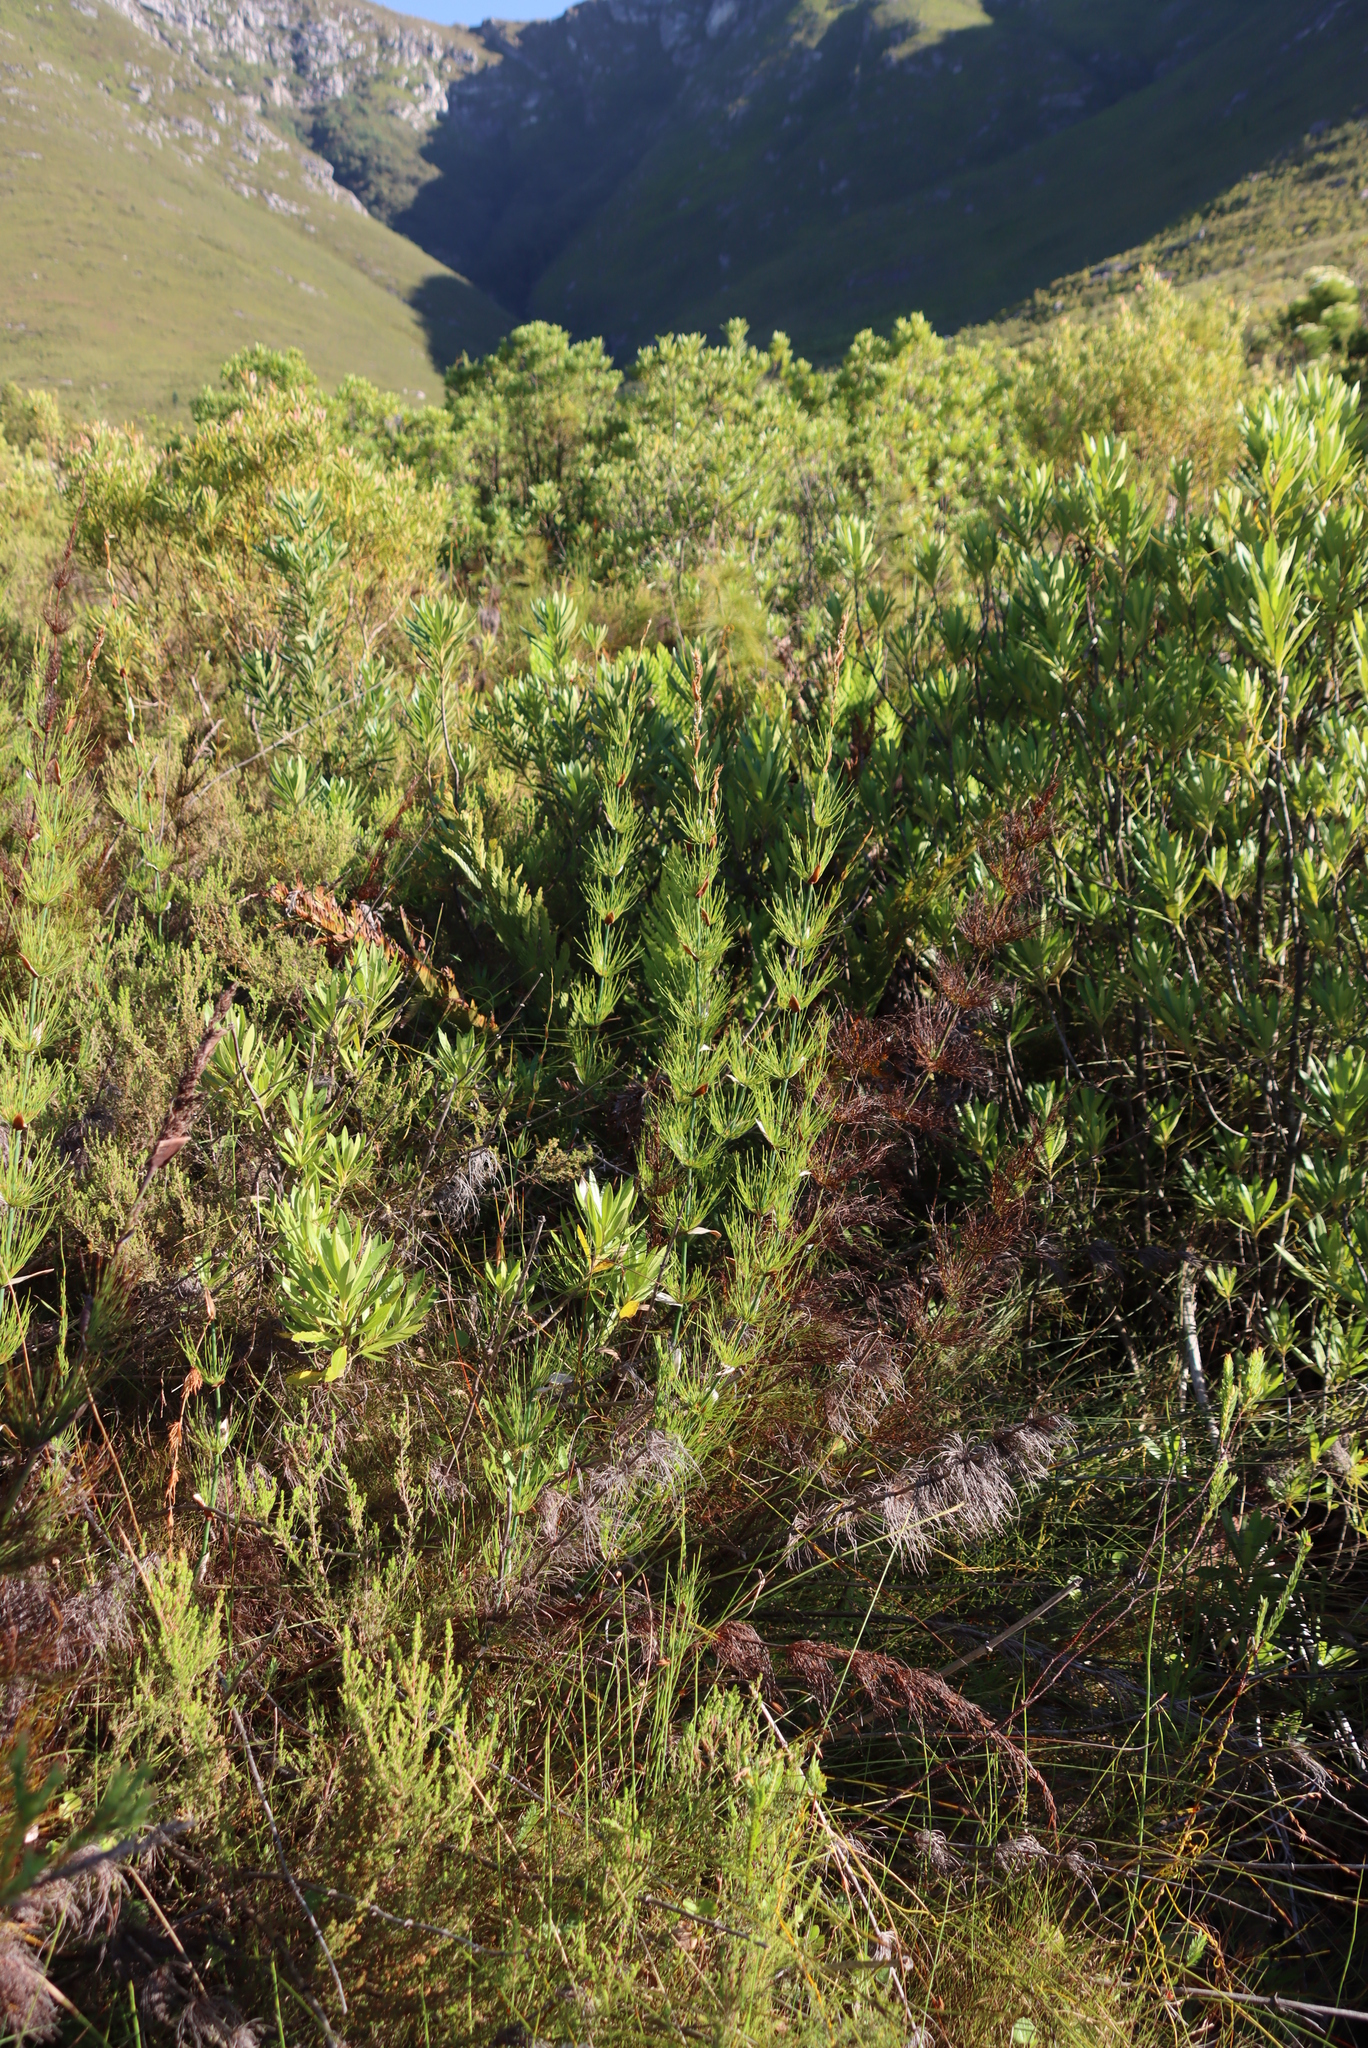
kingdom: Plantae
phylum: Tracheophyta
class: Liliopsida
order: Poales
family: Restionaceae
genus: Elegia
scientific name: Elegia capensis
